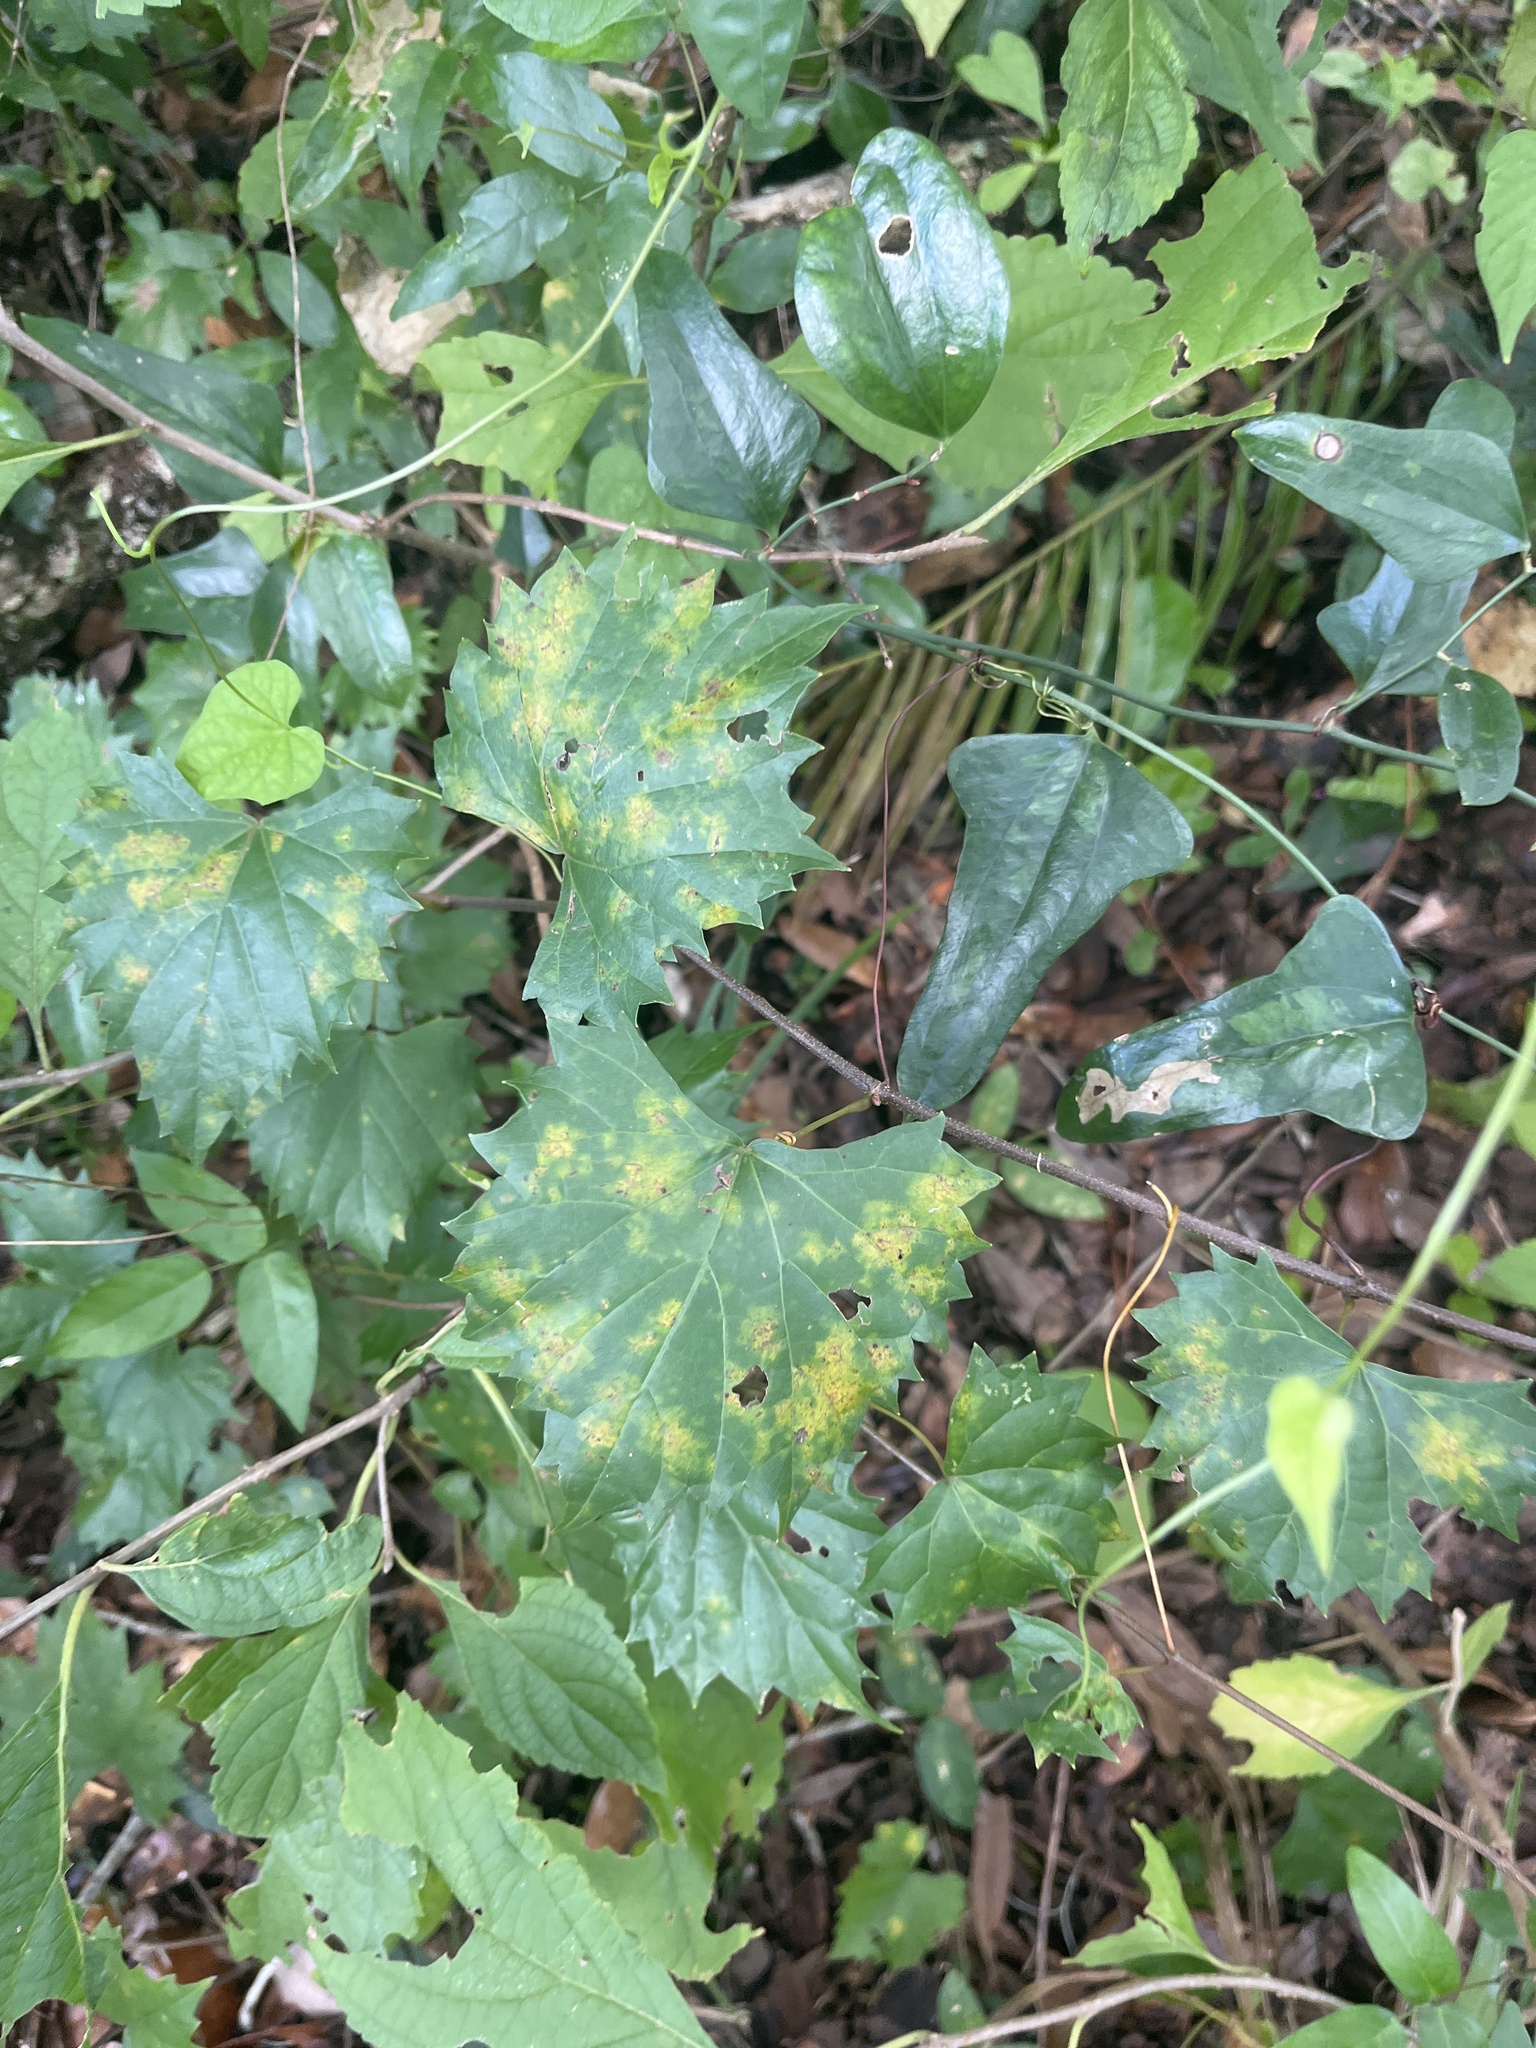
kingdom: Plantae
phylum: Tracheophyta
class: Magnoliopsida
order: Vitales
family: Vitaceae
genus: Vitis
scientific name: Vitis rotundifolia
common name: Muscadine grape
